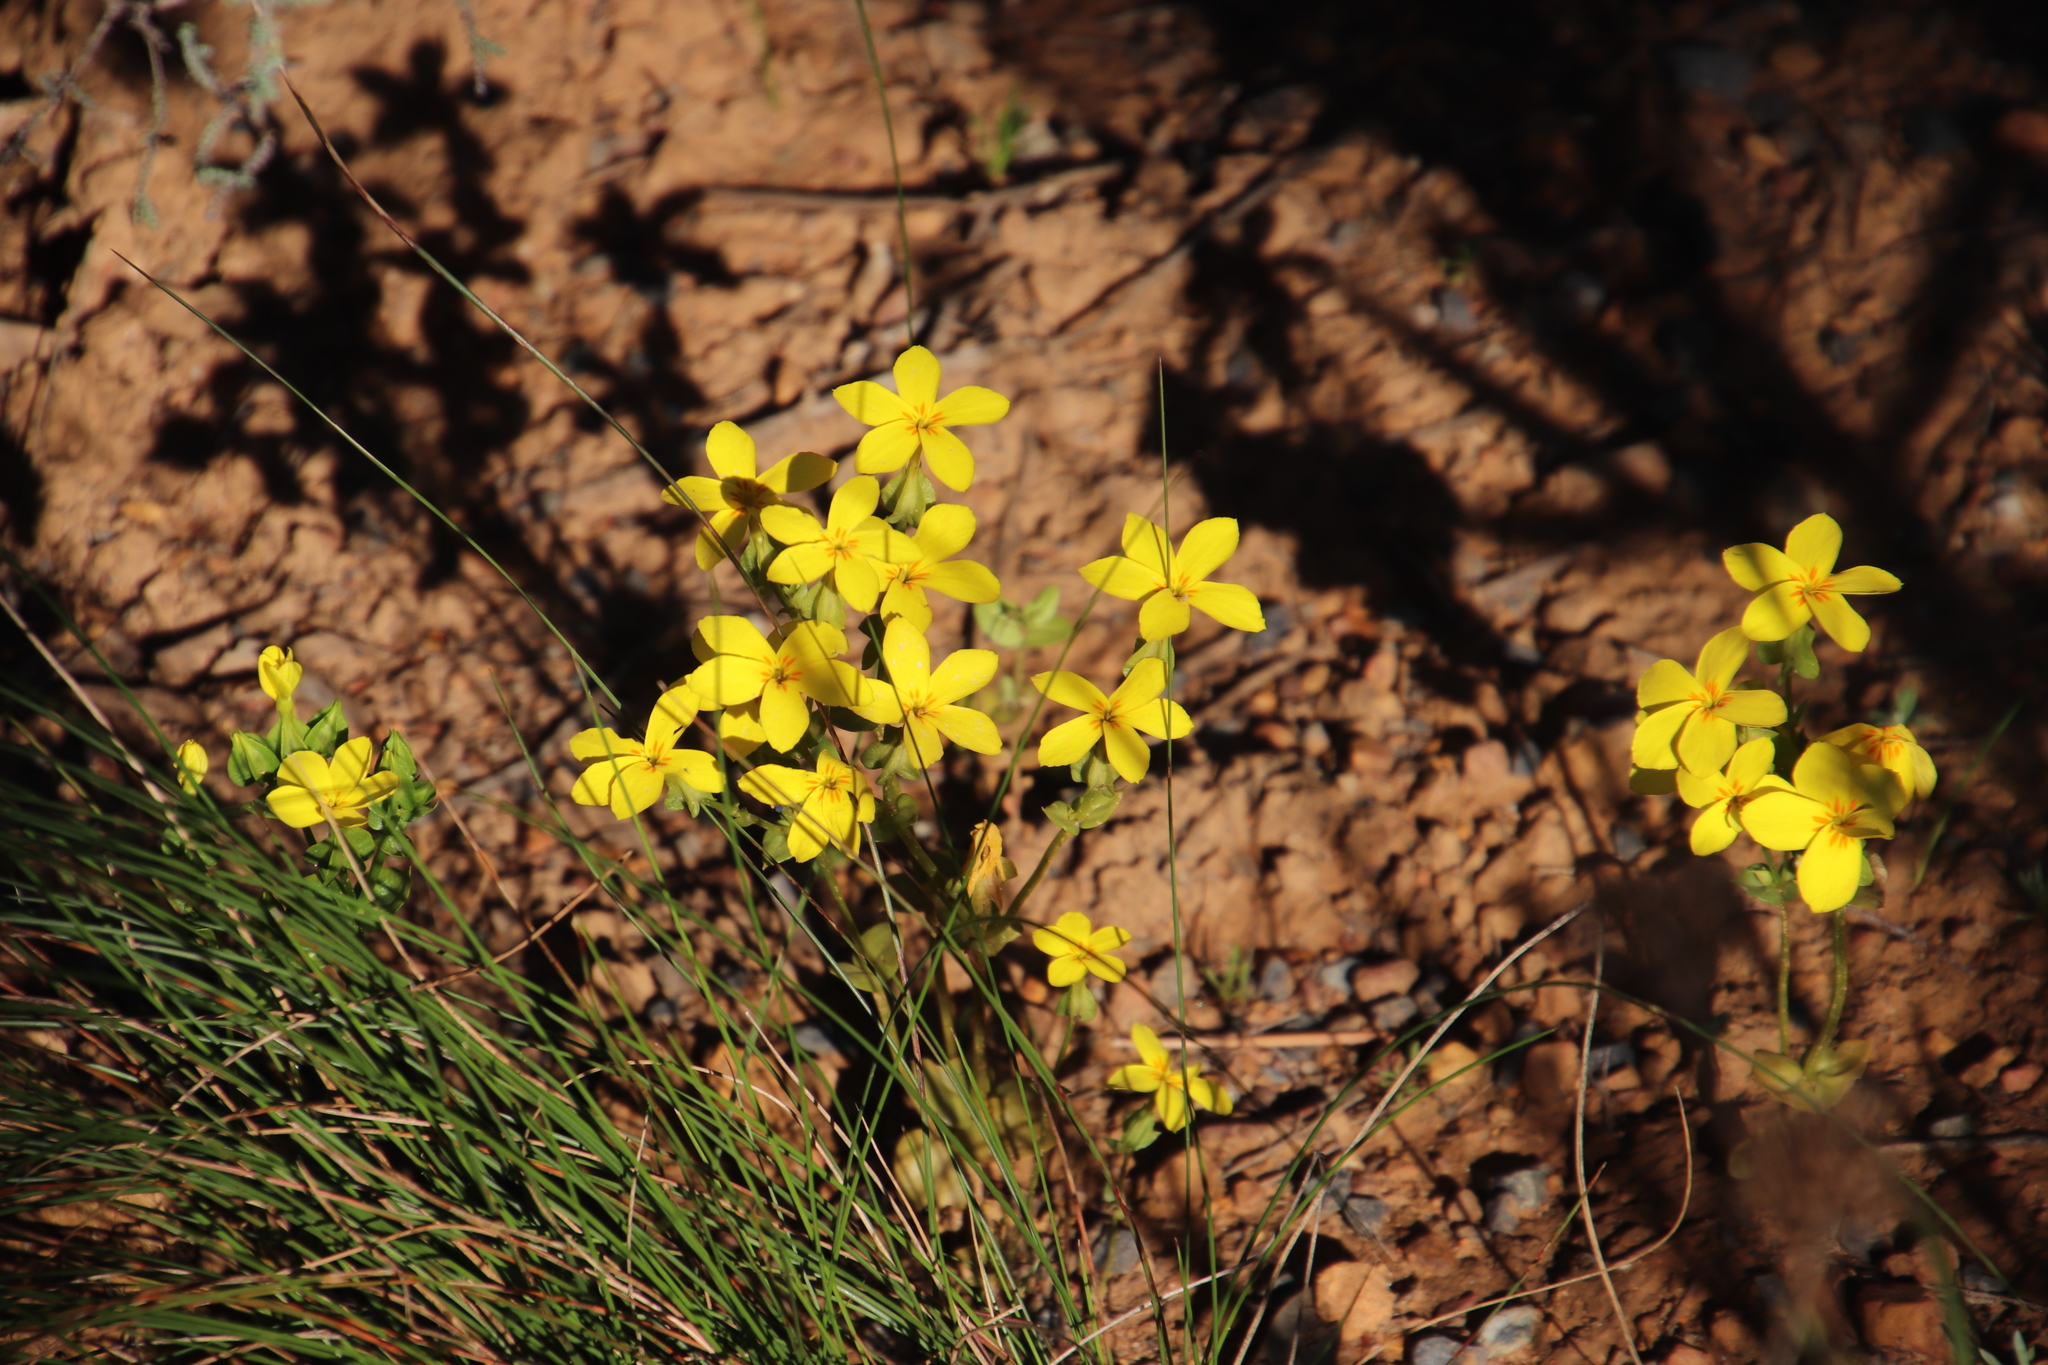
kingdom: Plantae
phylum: Tracheophyta
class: Magnoliopsida
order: Gentianales
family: Gentianaceae
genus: Sebaea
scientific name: Sebaea exacoides
